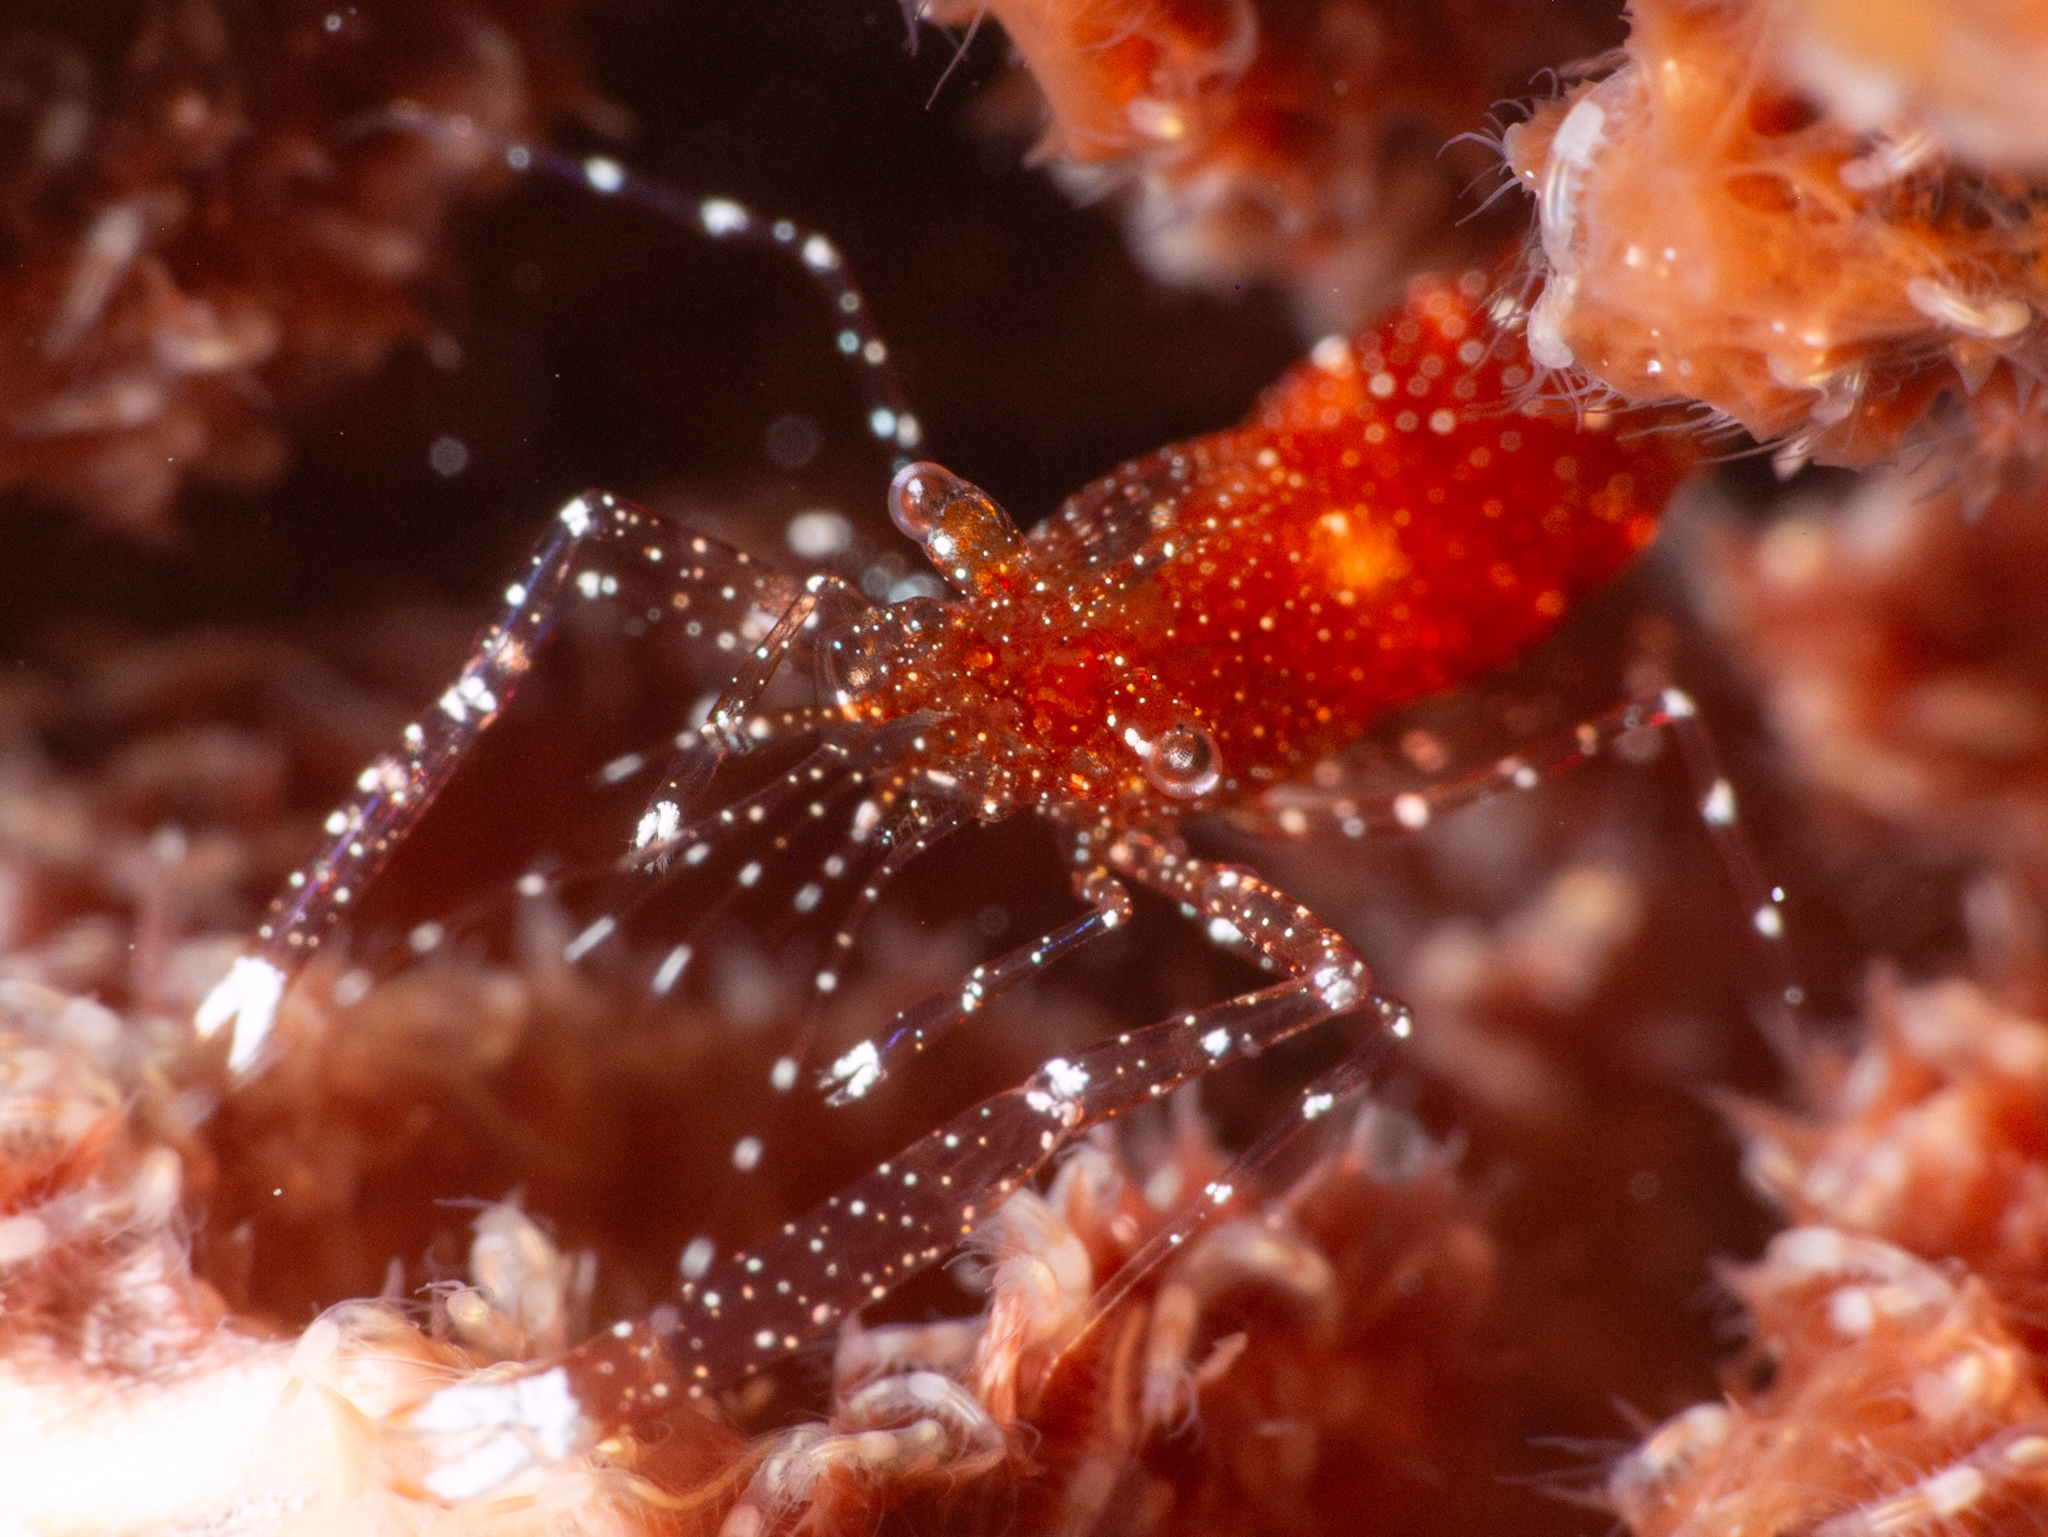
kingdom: Animalia
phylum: Arthropoda
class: Malacostraca
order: Decapoda
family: Palaemonidae
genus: Periclimenes
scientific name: Periclimenes harringtoni
